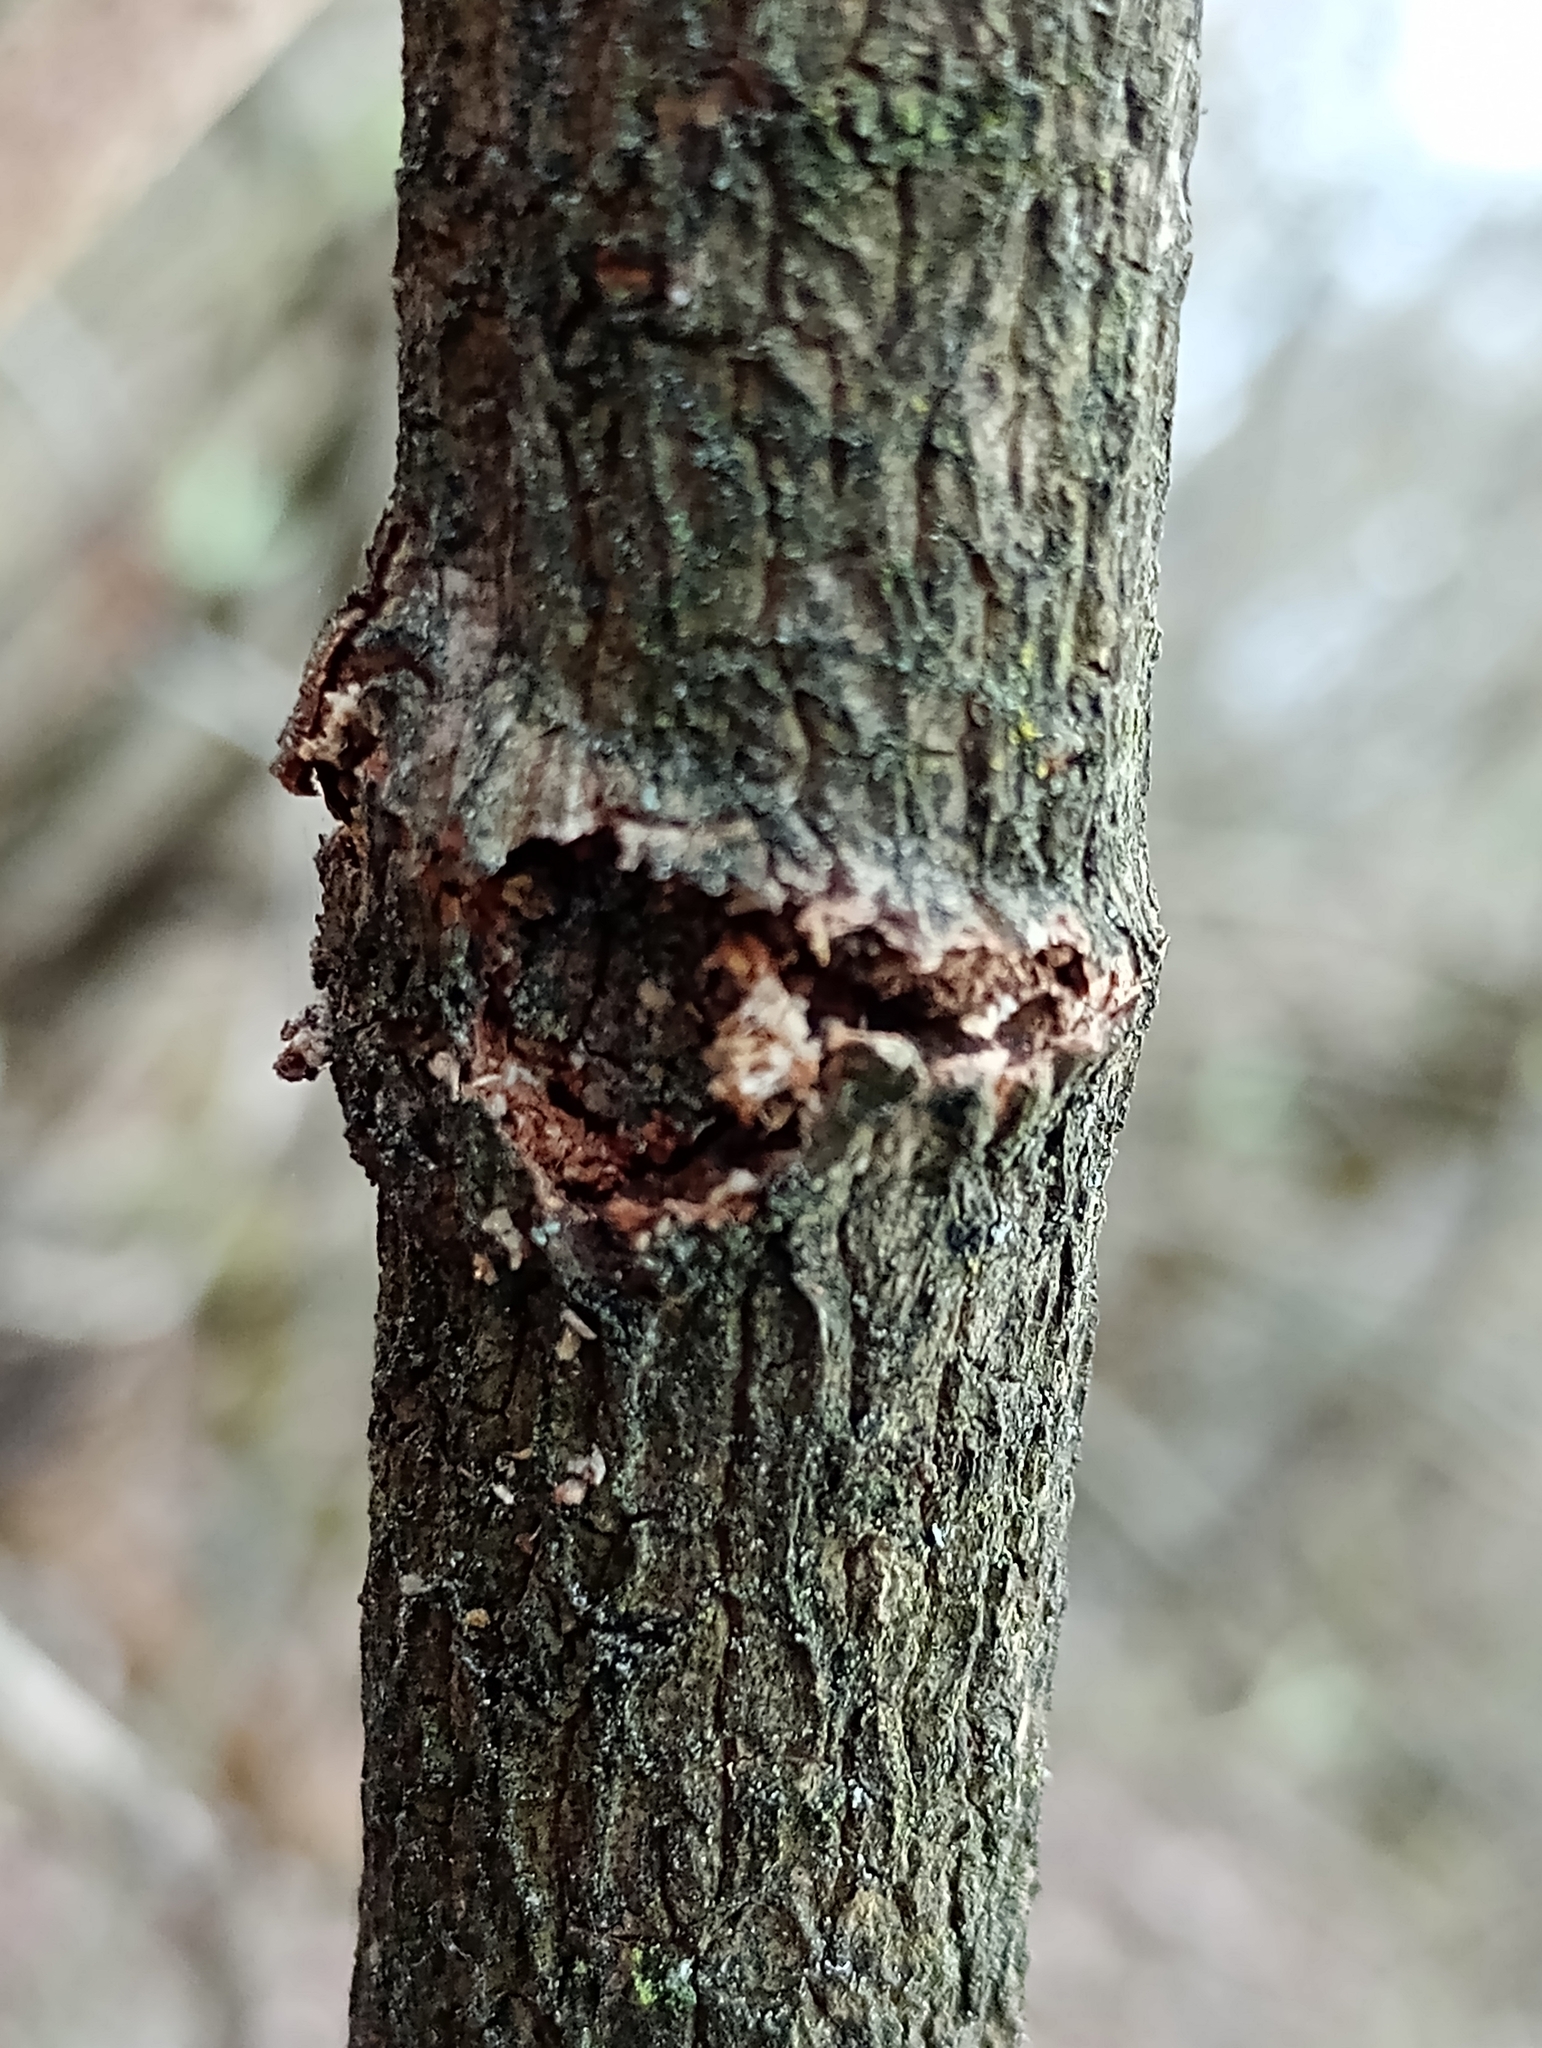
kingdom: Animalia
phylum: Arthropoda
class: Insecta
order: Lepidoptera
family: Sesiidae
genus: Synanthedon
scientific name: Synanthedon andrenaeformis
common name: Orange-tailed clearwing
